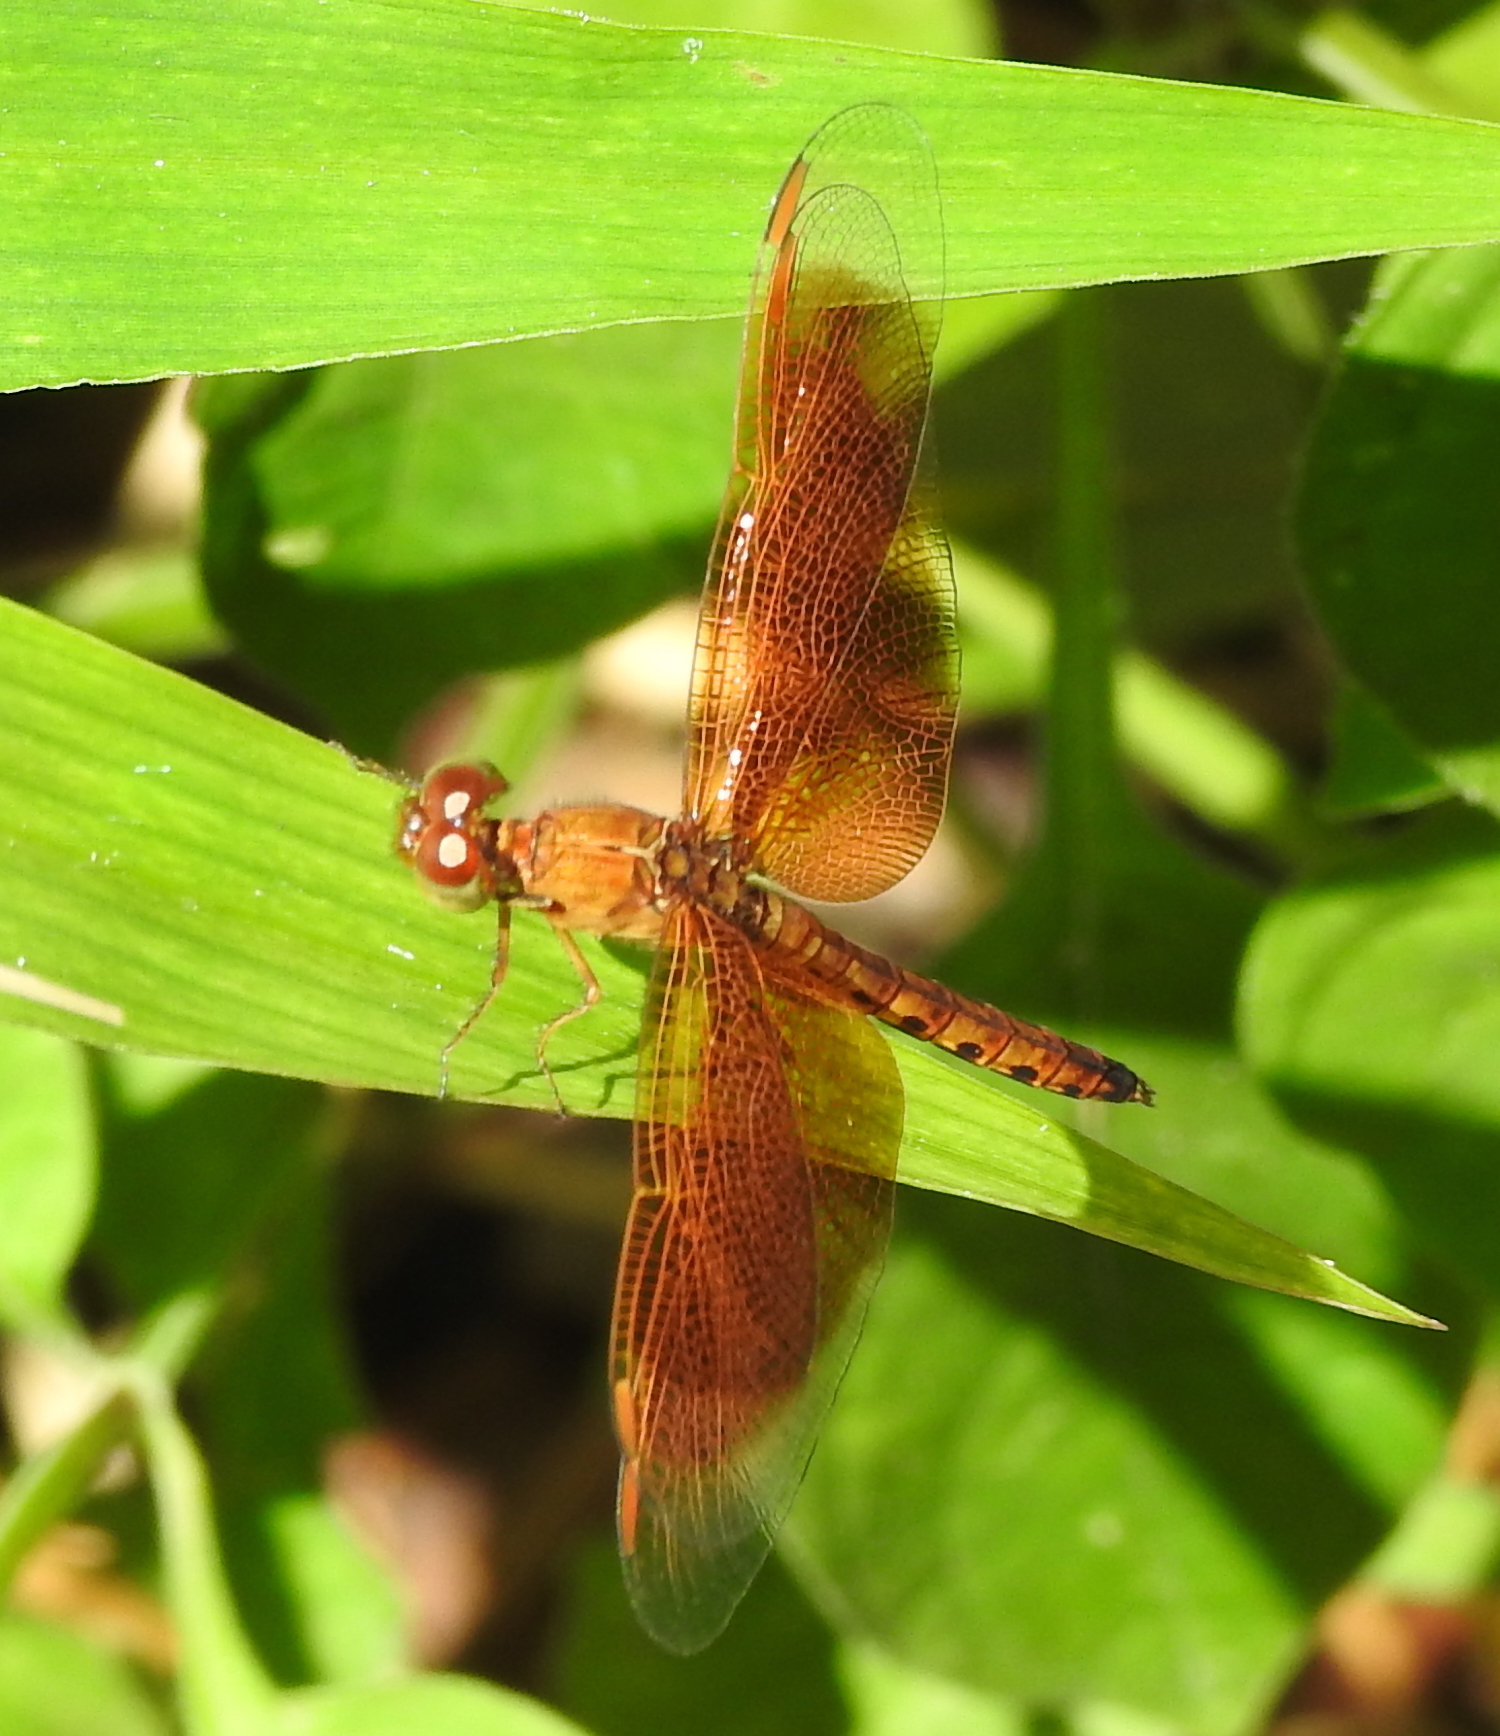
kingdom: Animalia
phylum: Arthropoda
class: Insecta
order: Odonata
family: Libellulidae
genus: Neurothemis
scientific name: Neurothemis fluctuans
